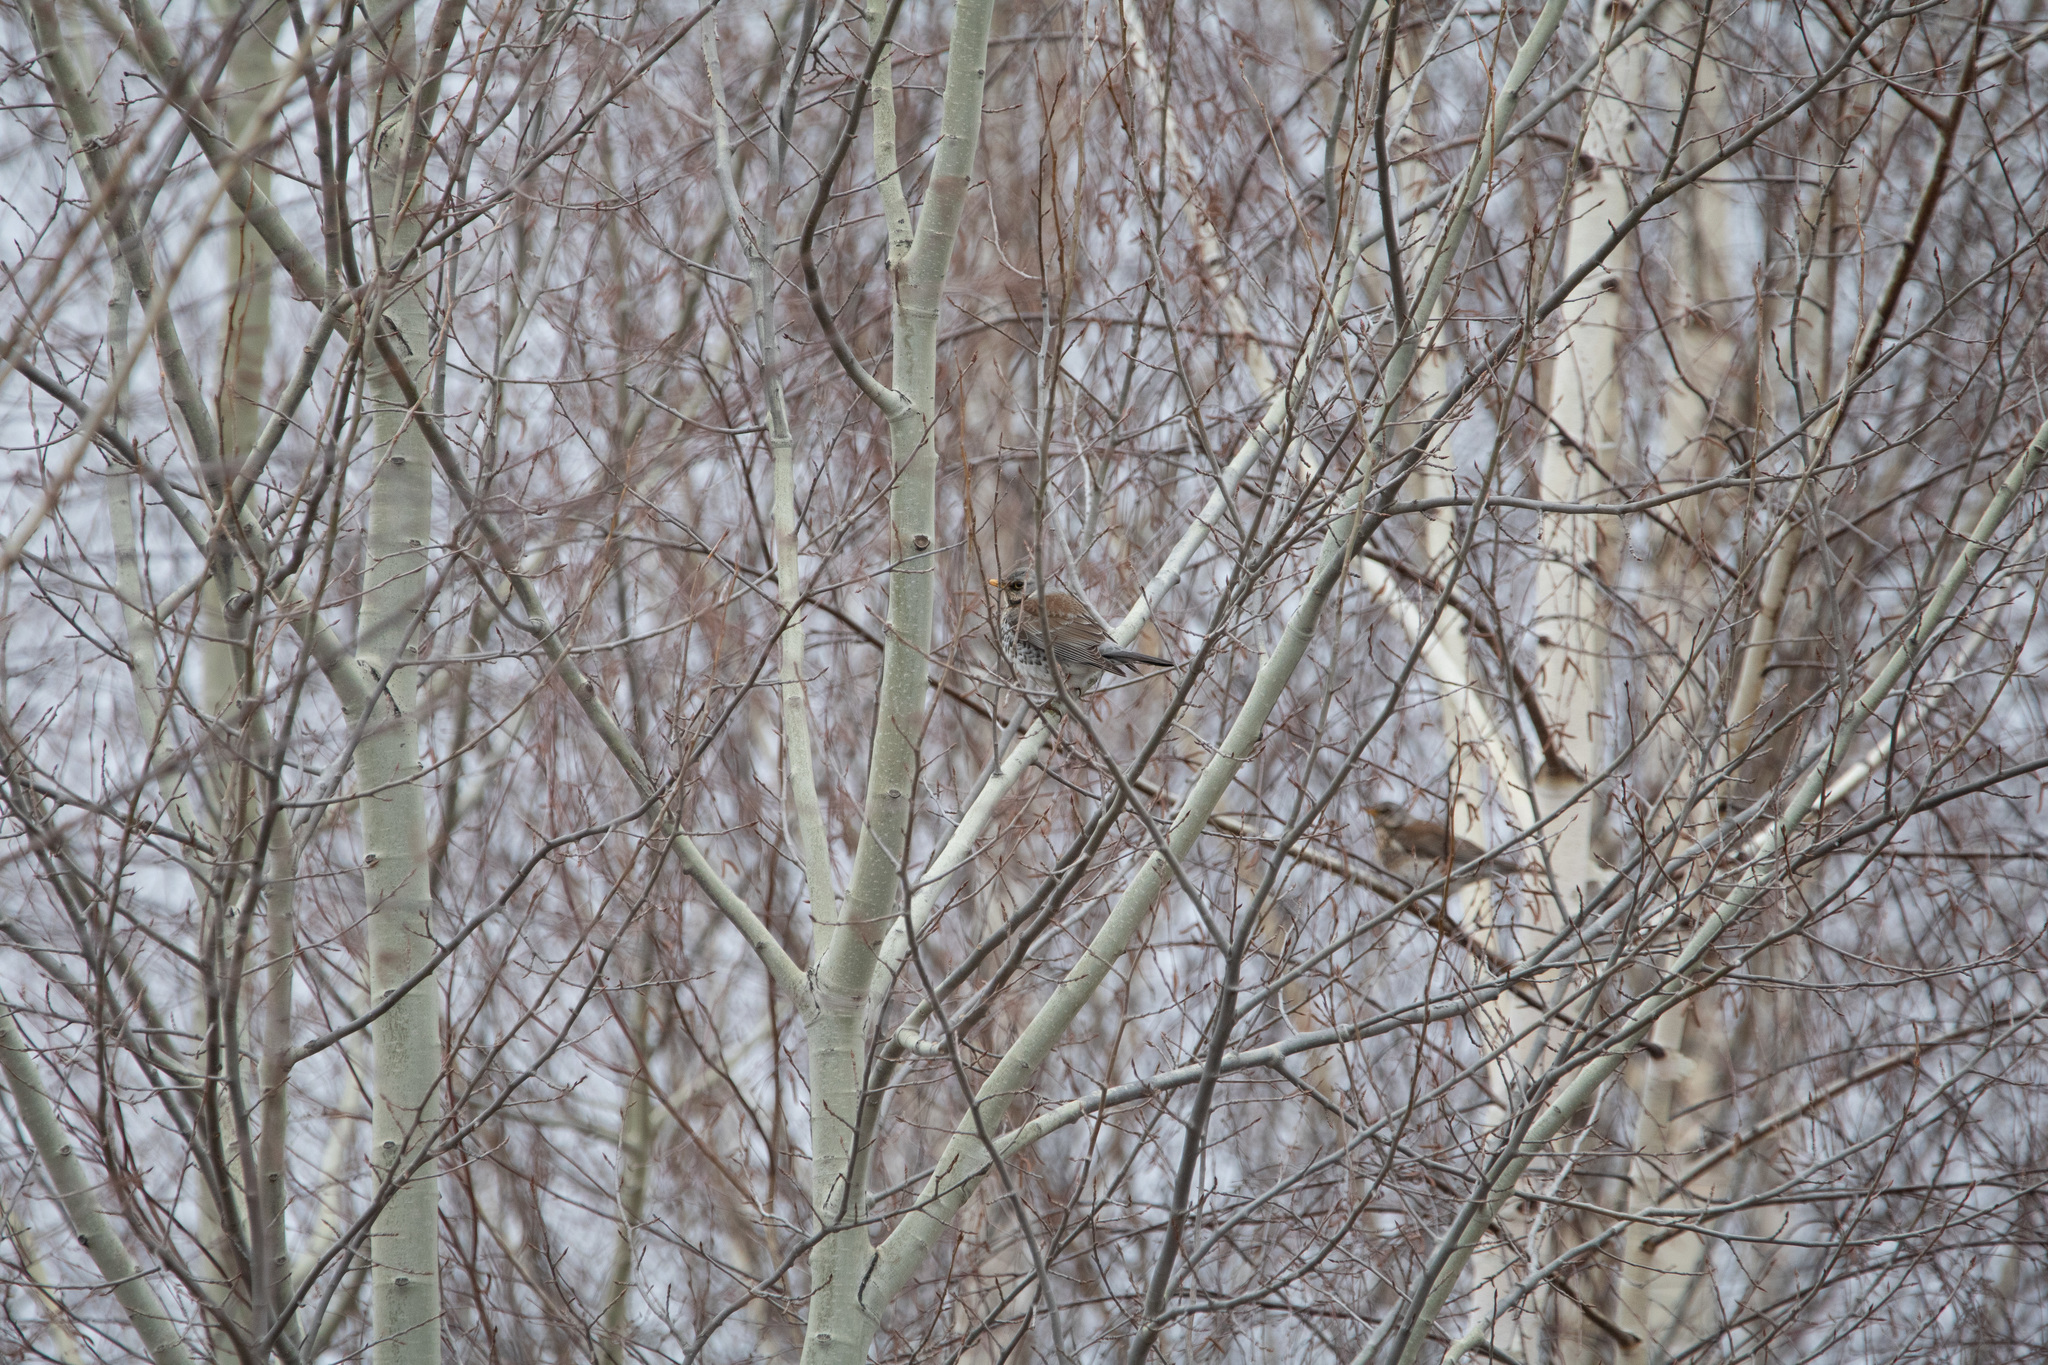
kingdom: Animalia
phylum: Chordata
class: Aves
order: Passeriformes
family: Turdidae
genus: Turdus
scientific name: Turdus pilaris
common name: Fieldfare
